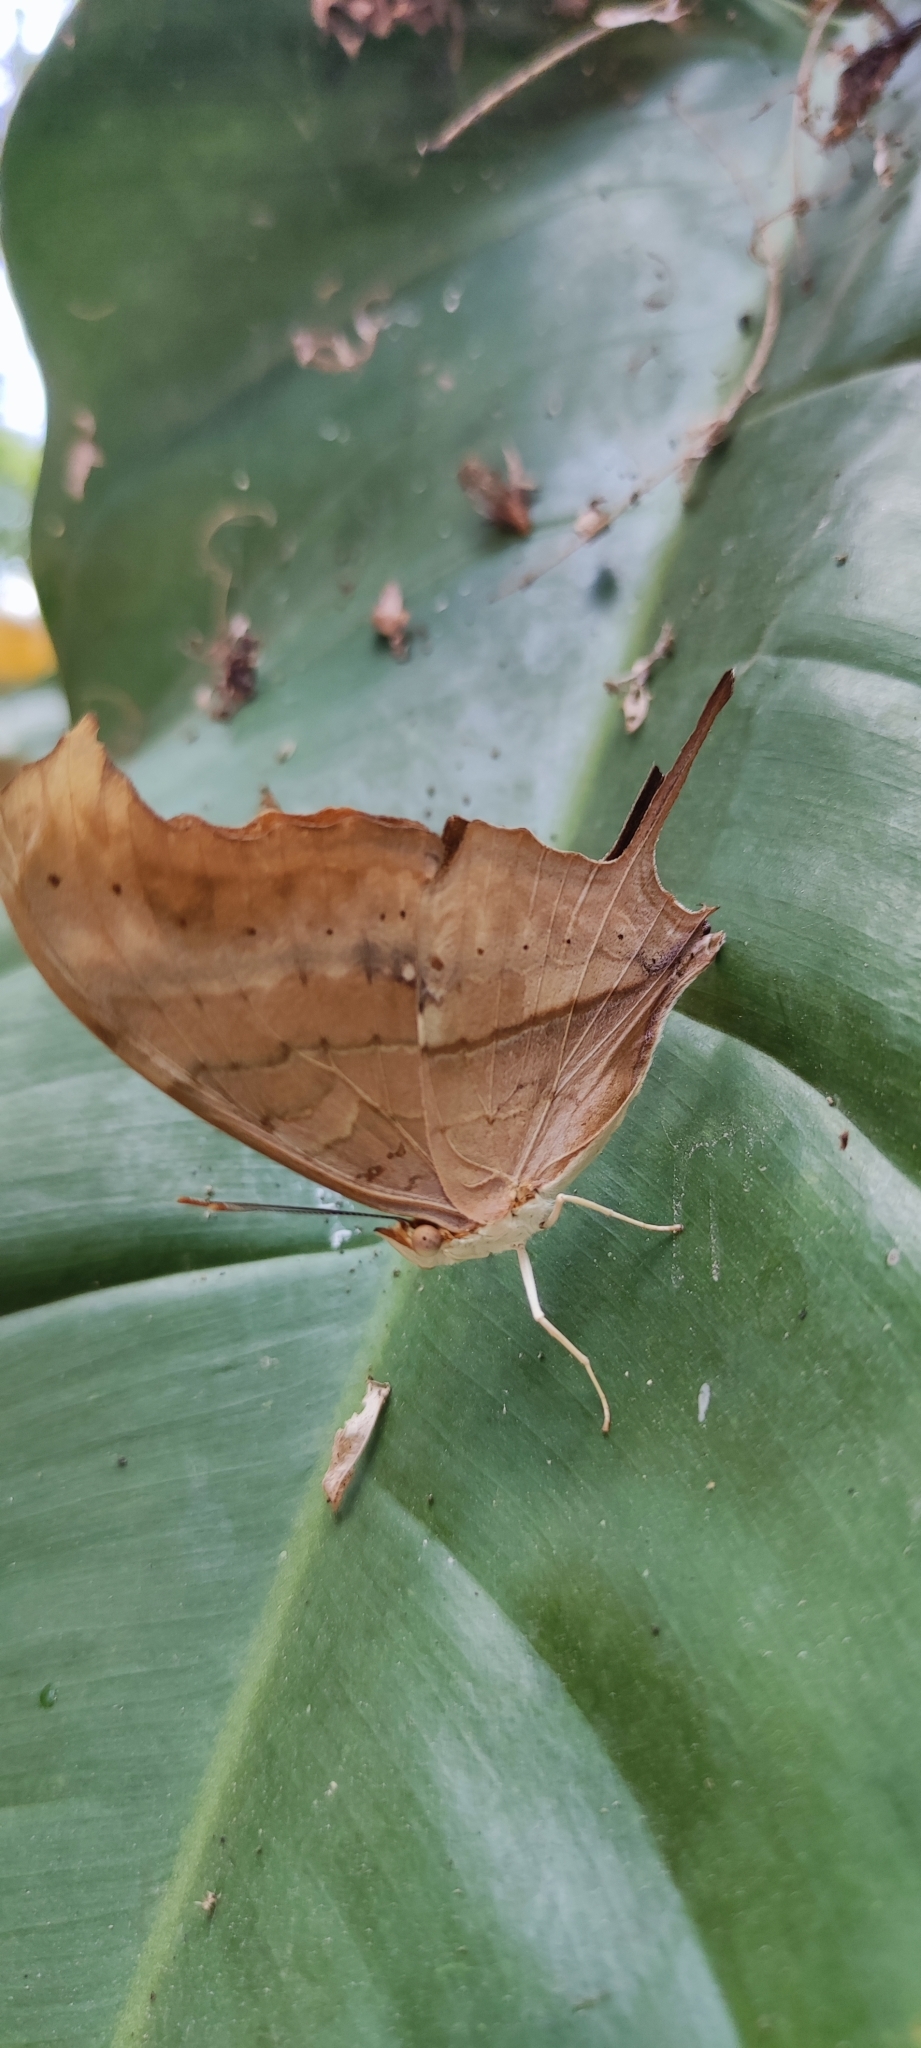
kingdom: Animalia
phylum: Arthropoda
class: Insecta
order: Lepidoptera
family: Nymphalidae
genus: Marpesia
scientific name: Marpesia petreus
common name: Red dagger wing
